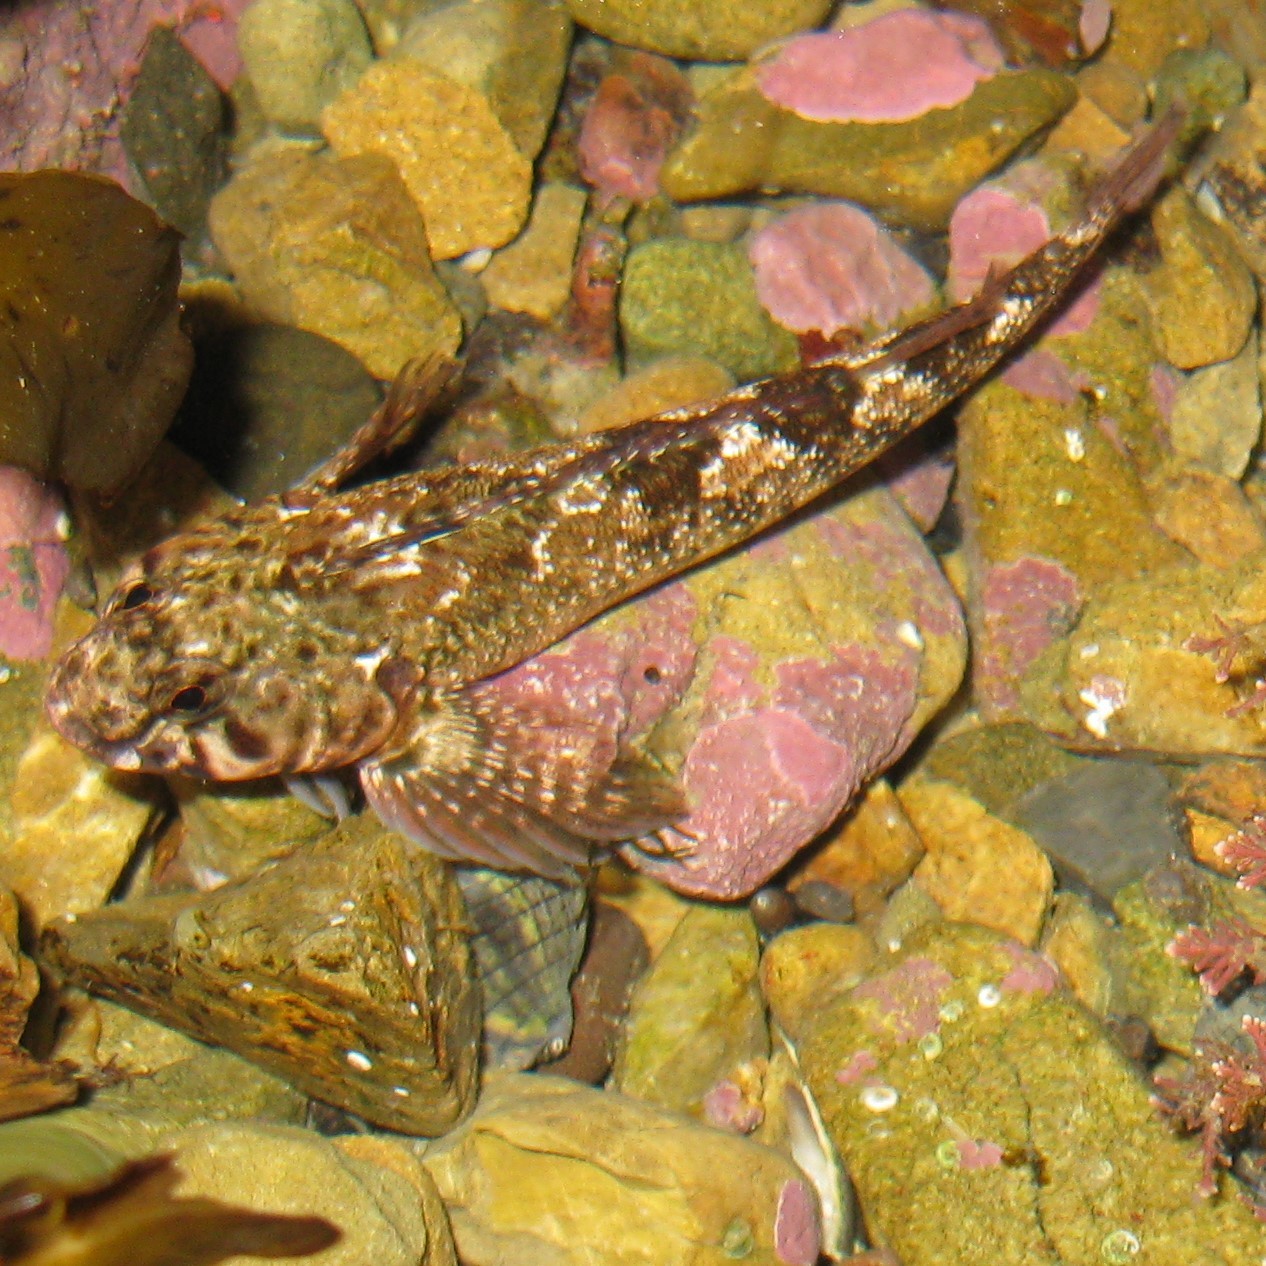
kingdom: Animalia
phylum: Chordata
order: Perciformes
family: Tripterygiidae
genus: Bellapiscis
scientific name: Bellapiscis medius
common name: Twister
